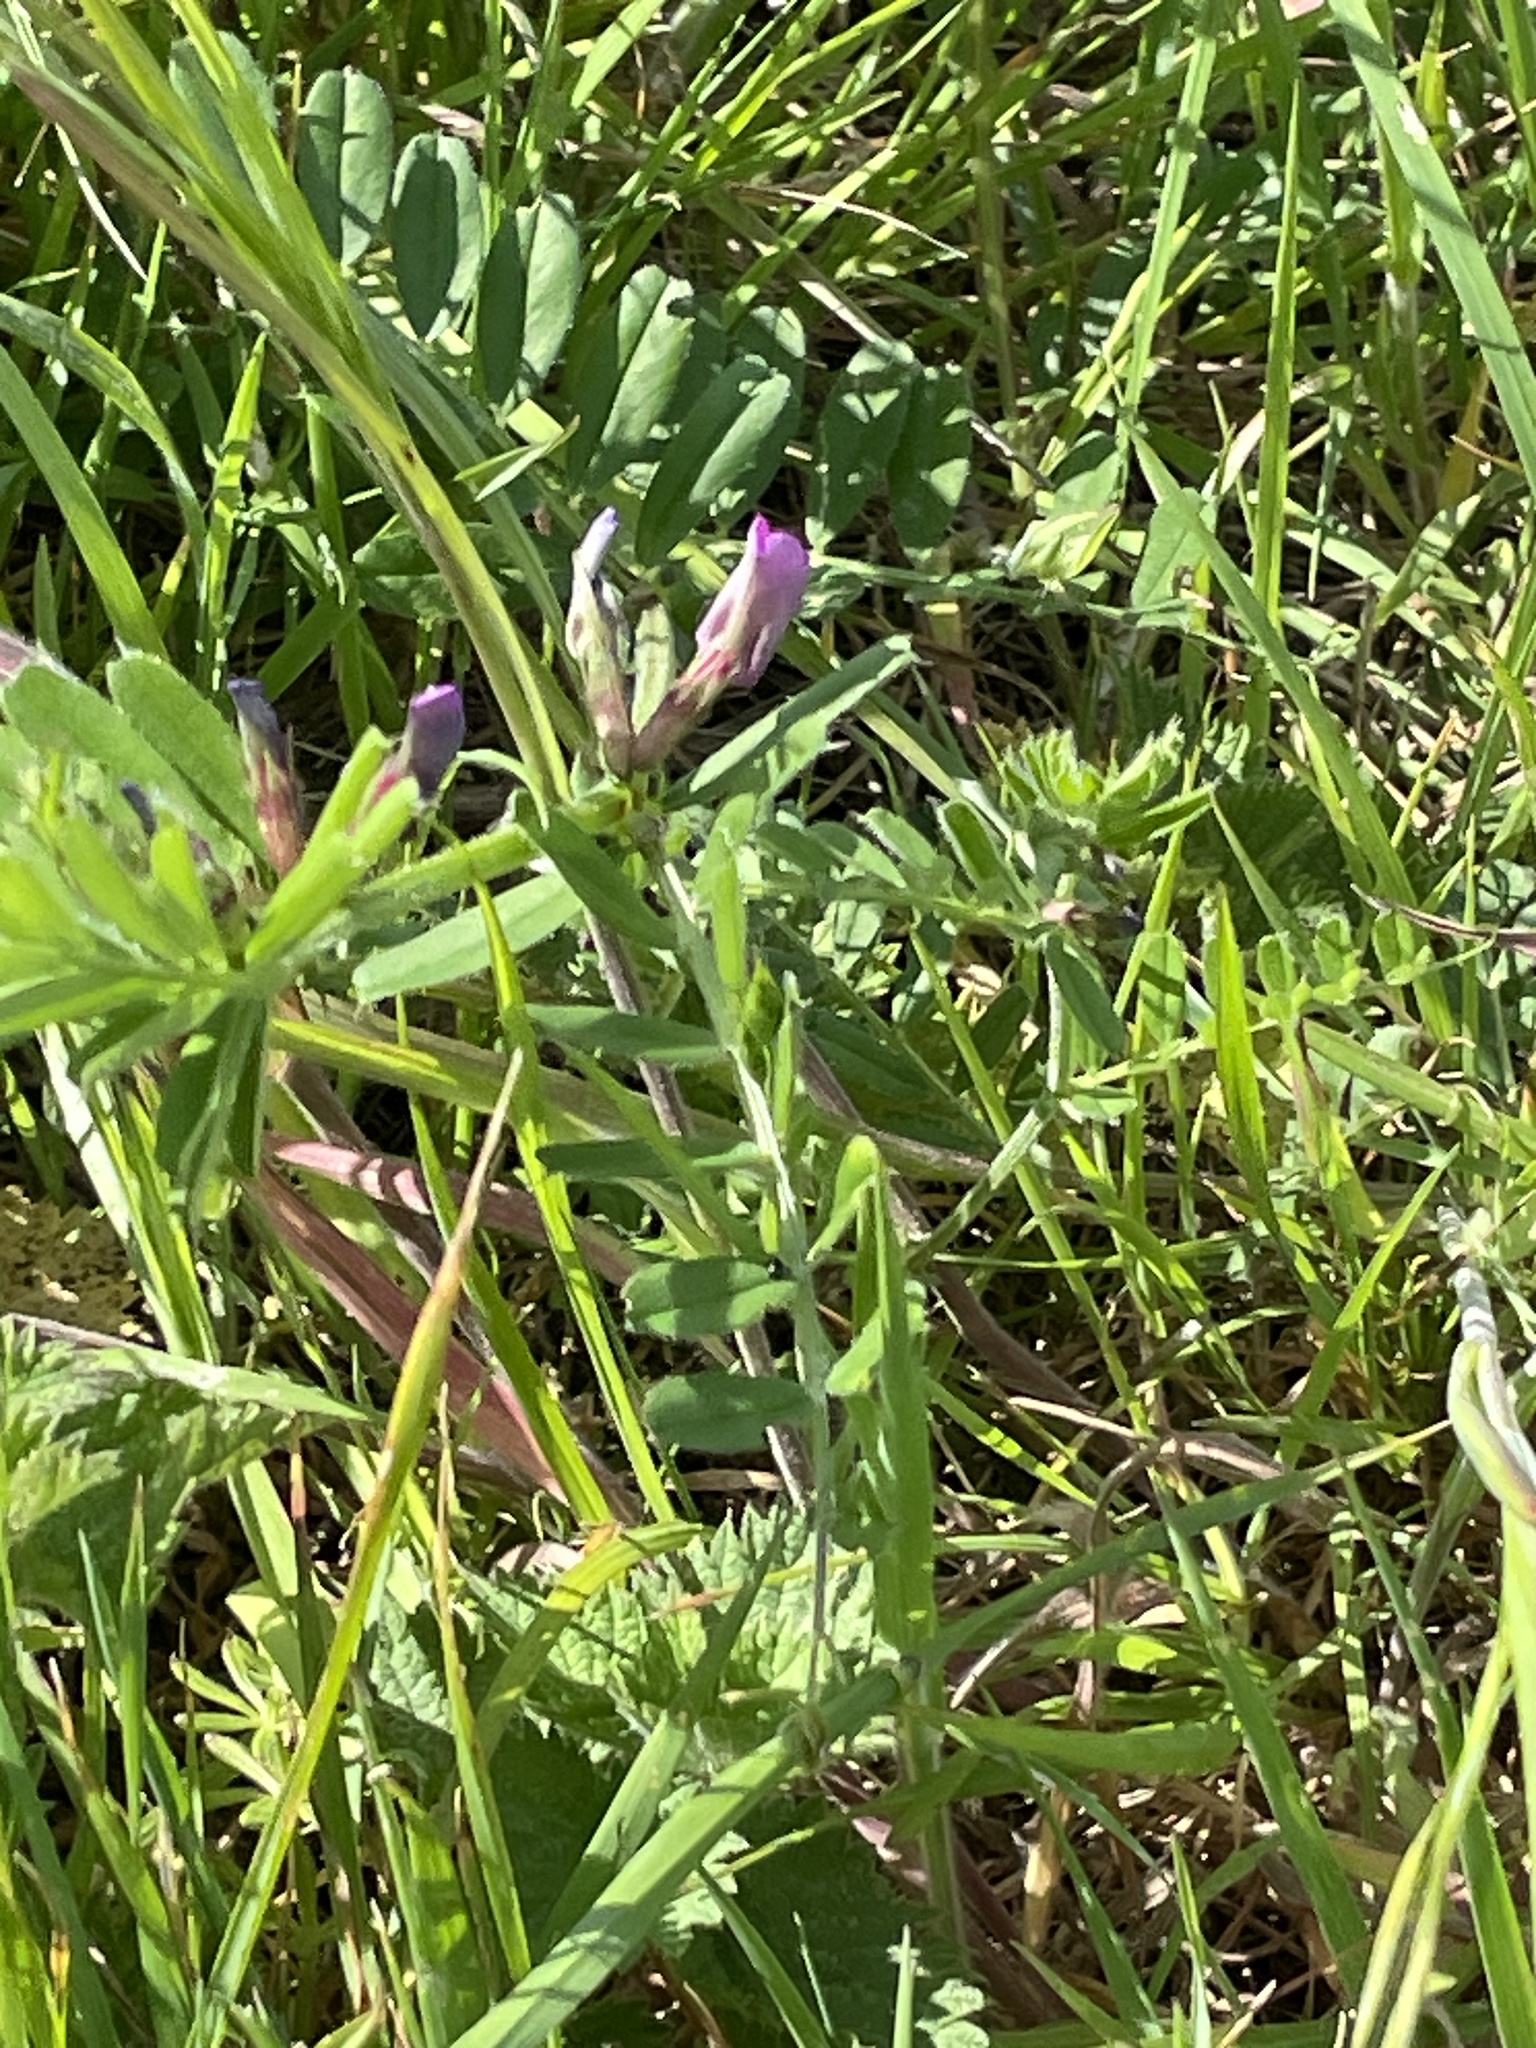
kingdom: Plantae
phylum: Tracheophyta
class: Magnoliopsida
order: Fabales
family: Fabaceae
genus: Vicia
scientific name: Vicia sativa
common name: Garden vetch
